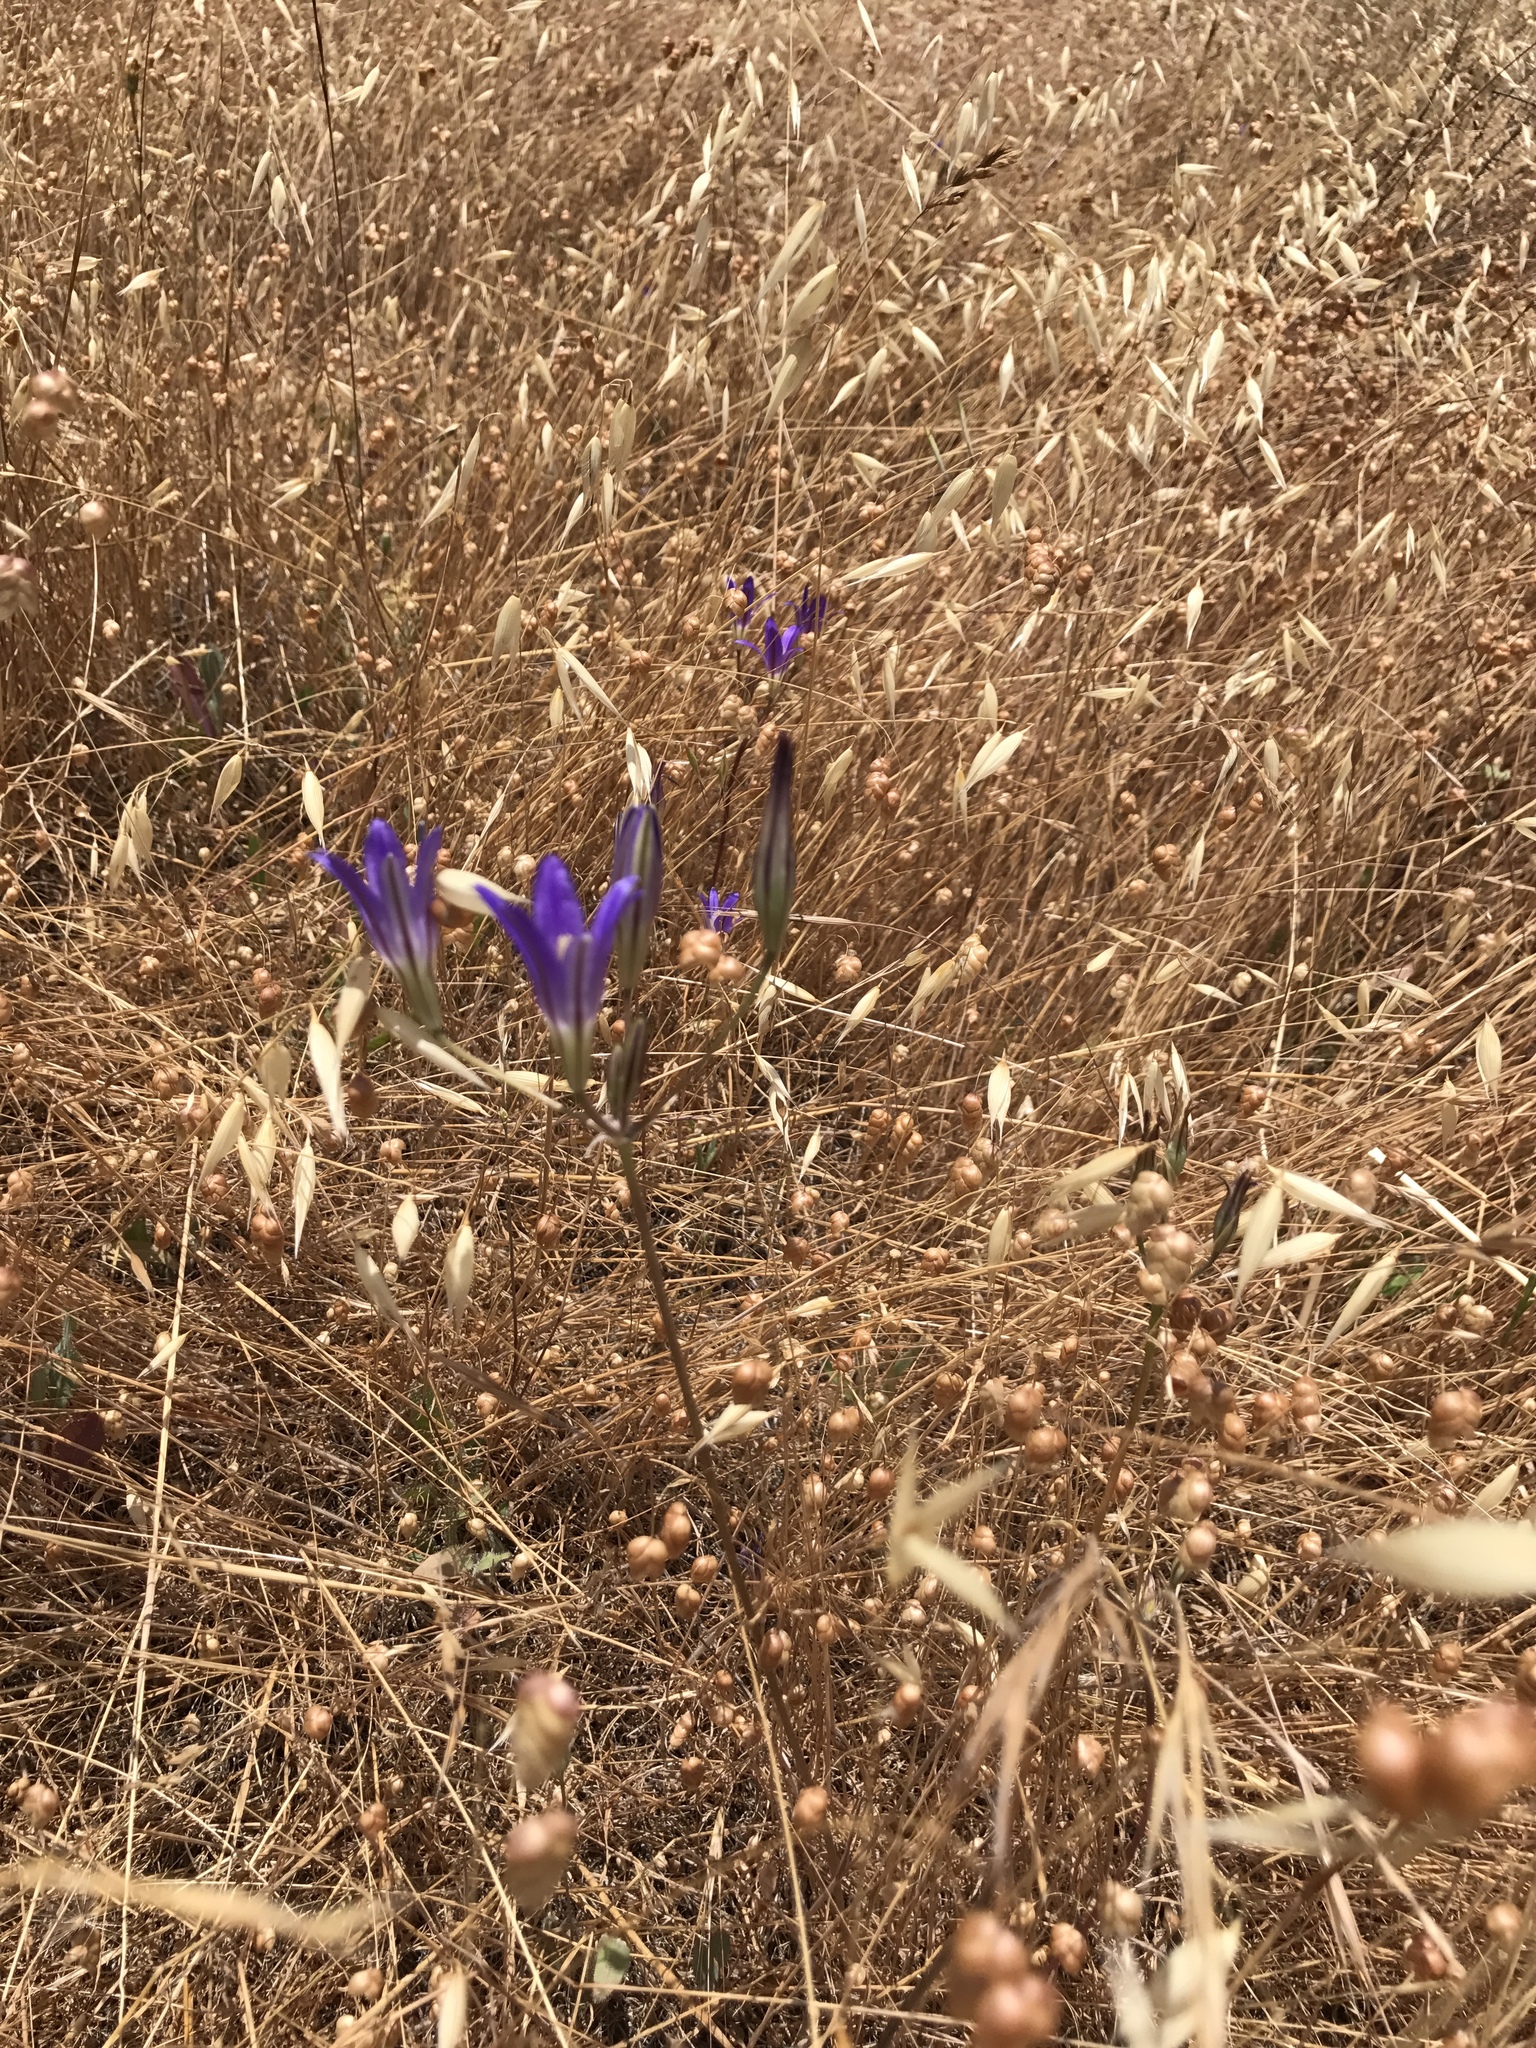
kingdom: Plantae
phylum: Tracheophyta
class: Liliopsida
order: Asparagales
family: Asparagaceae
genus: Brodiaea
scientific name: Brodiaea elegans
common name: Elegant cluster-lily
